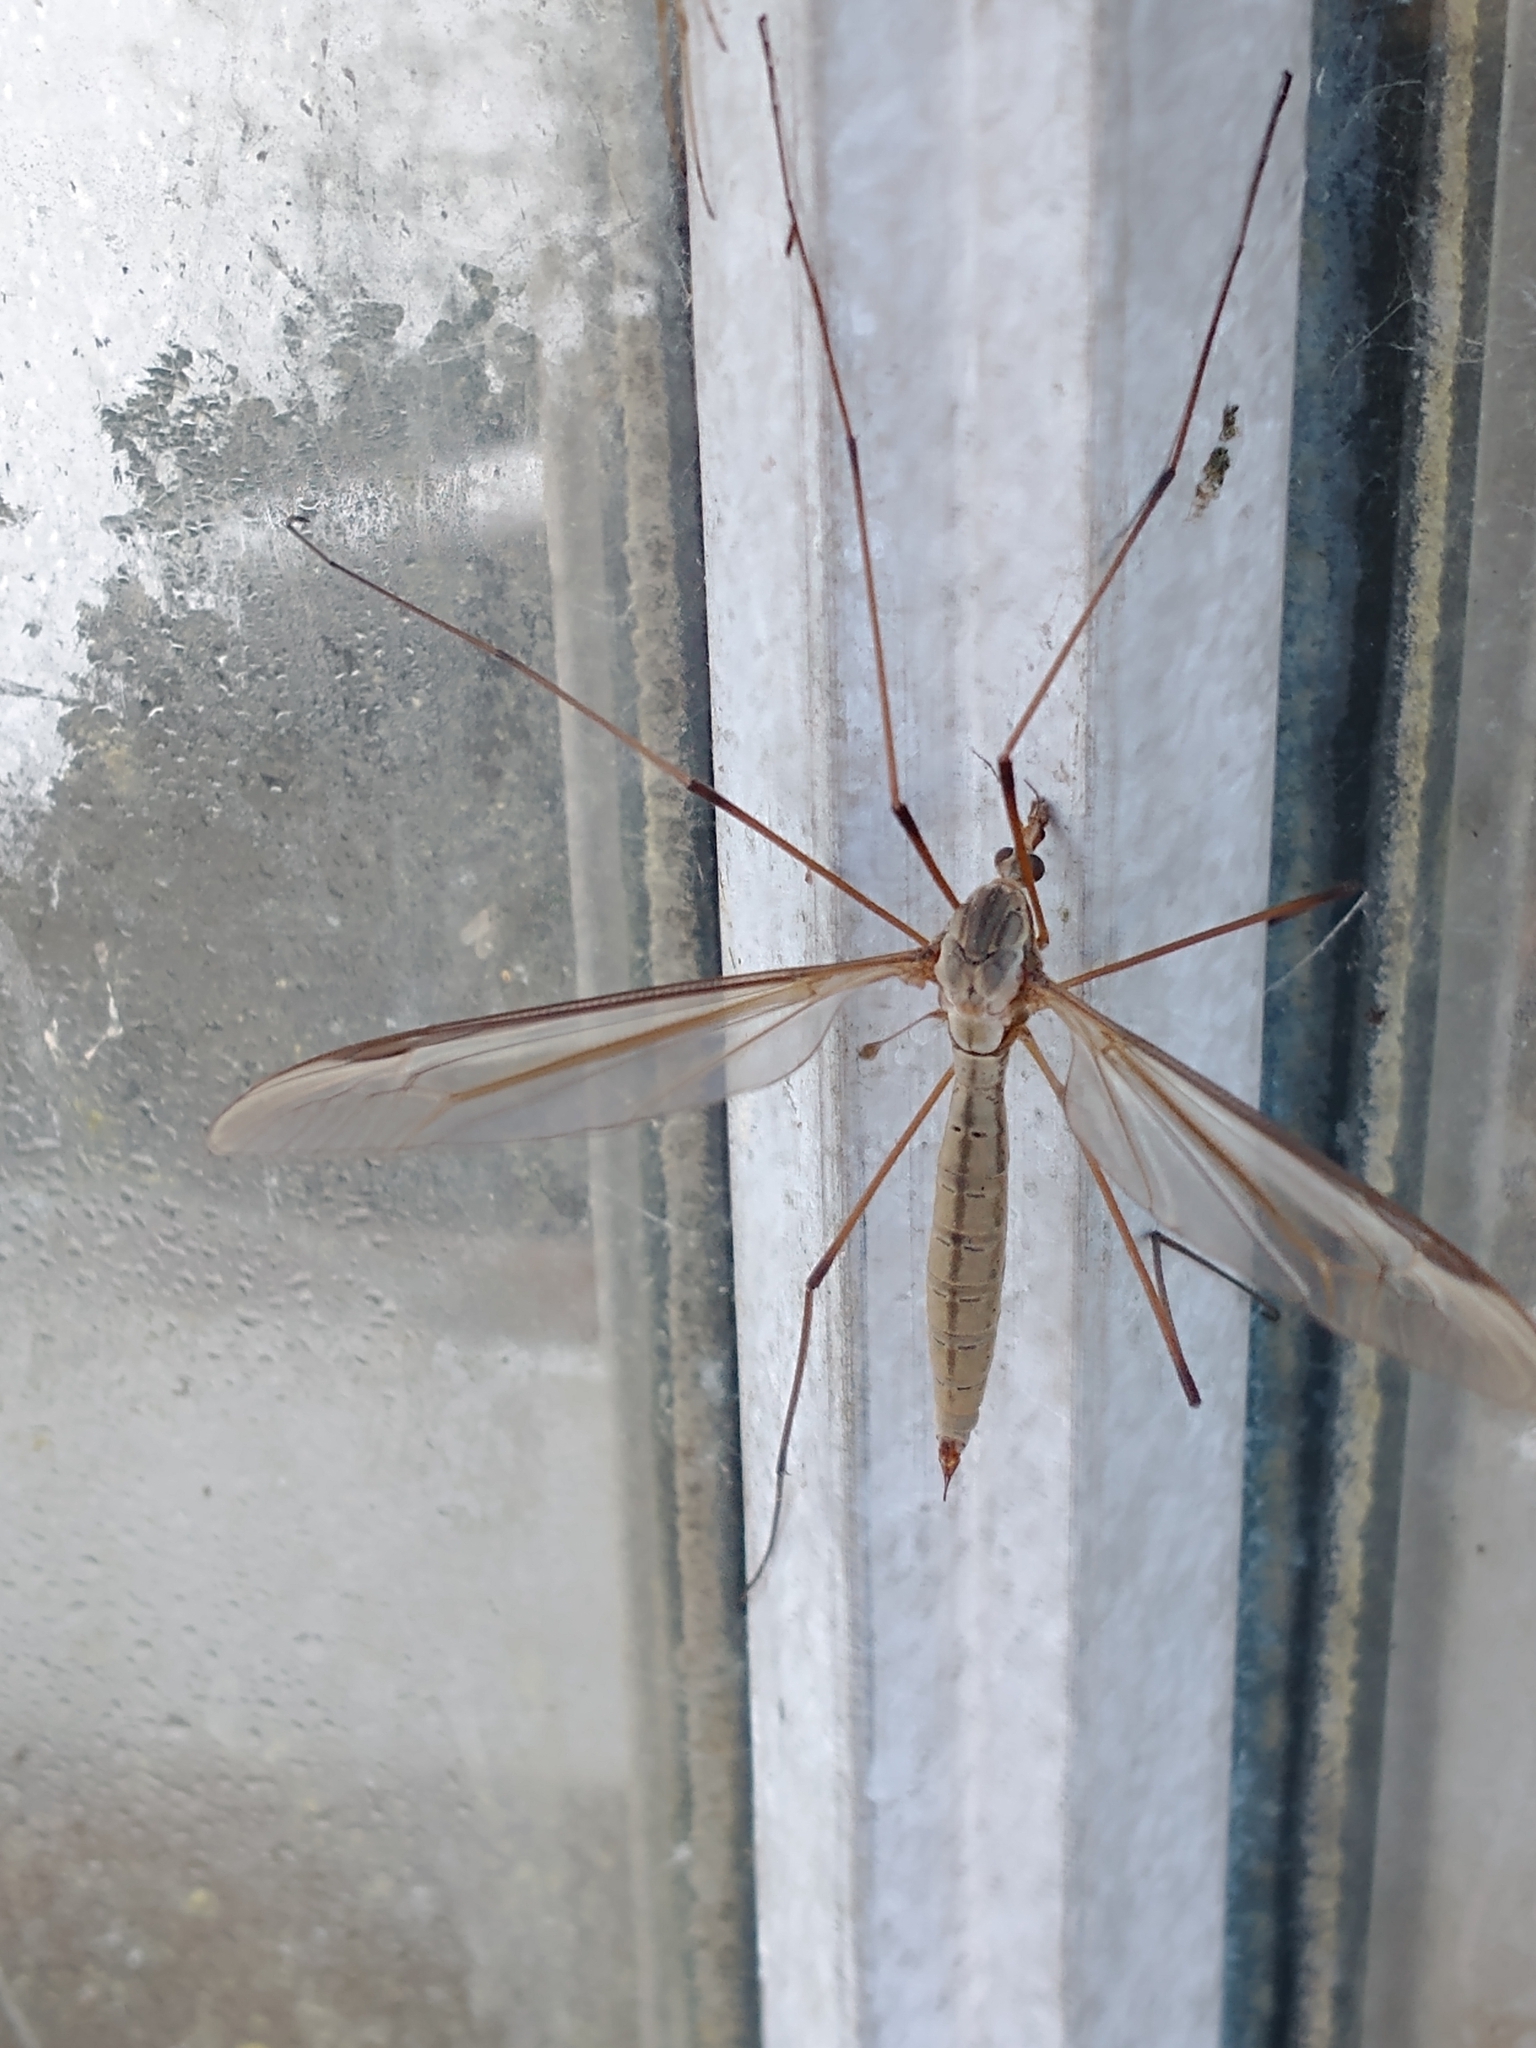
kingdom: Animalia
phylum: Arthropoda
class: Insecta
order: Diptera
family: Tipulidae
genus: Tipula
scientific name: Tipula oleracea
